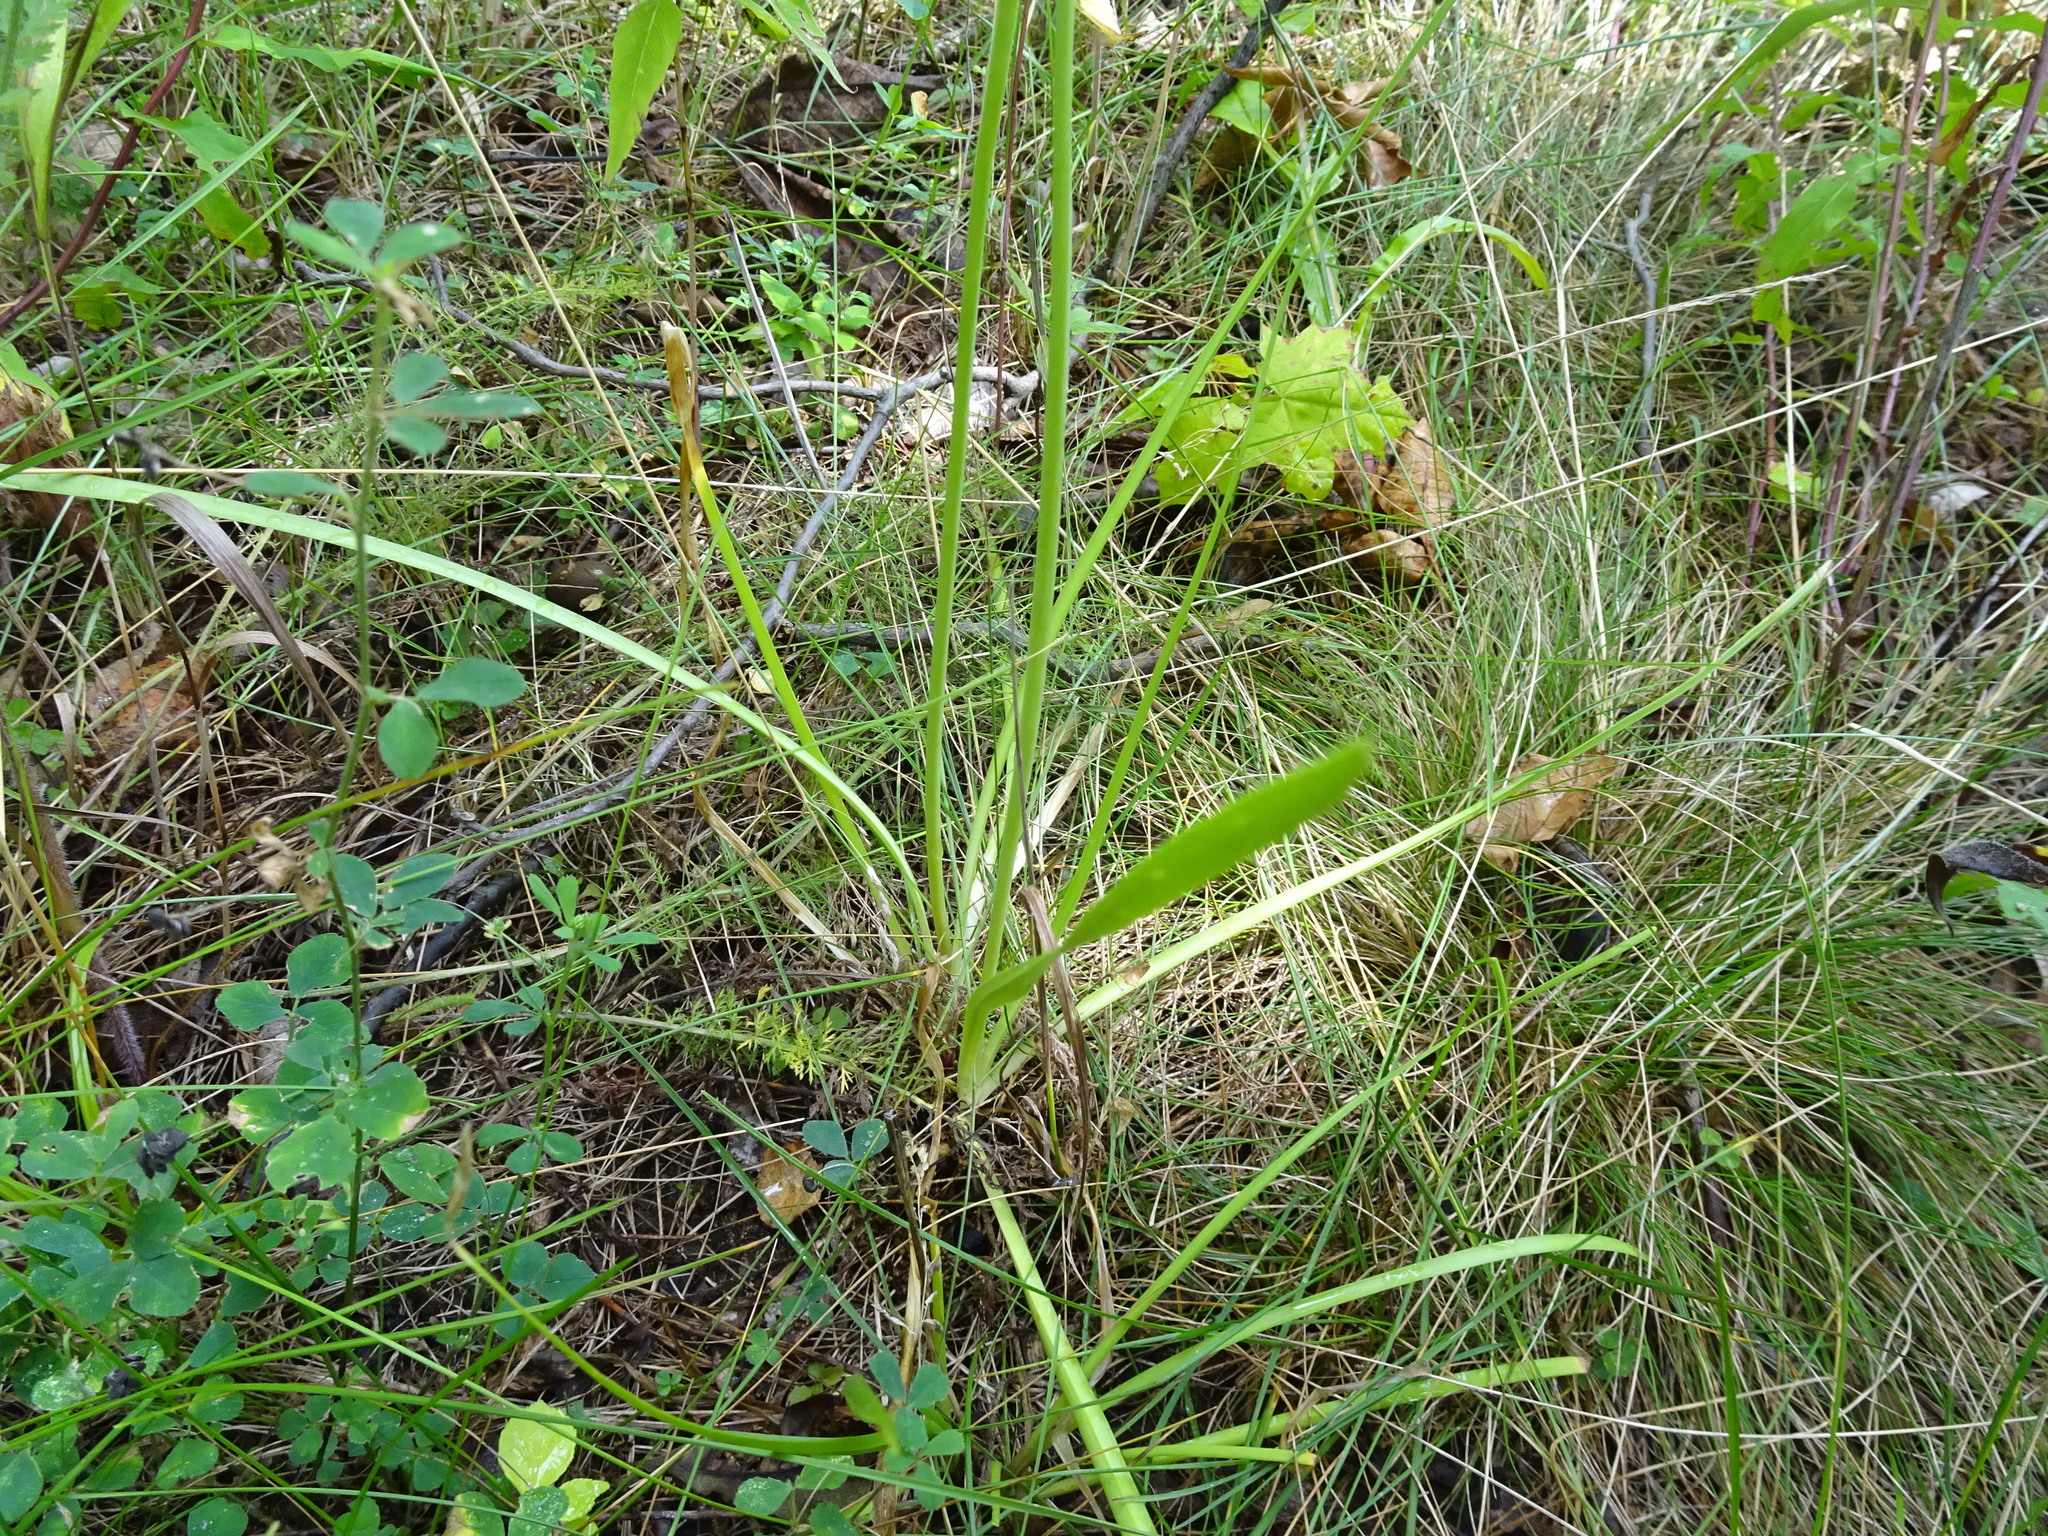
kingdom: Plantae
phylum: Tracheophyta
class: Liliopsida
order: Asparagales
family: Amaryllidaceae
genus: Allium
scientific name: Allium cernuum
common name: Nodding onion
